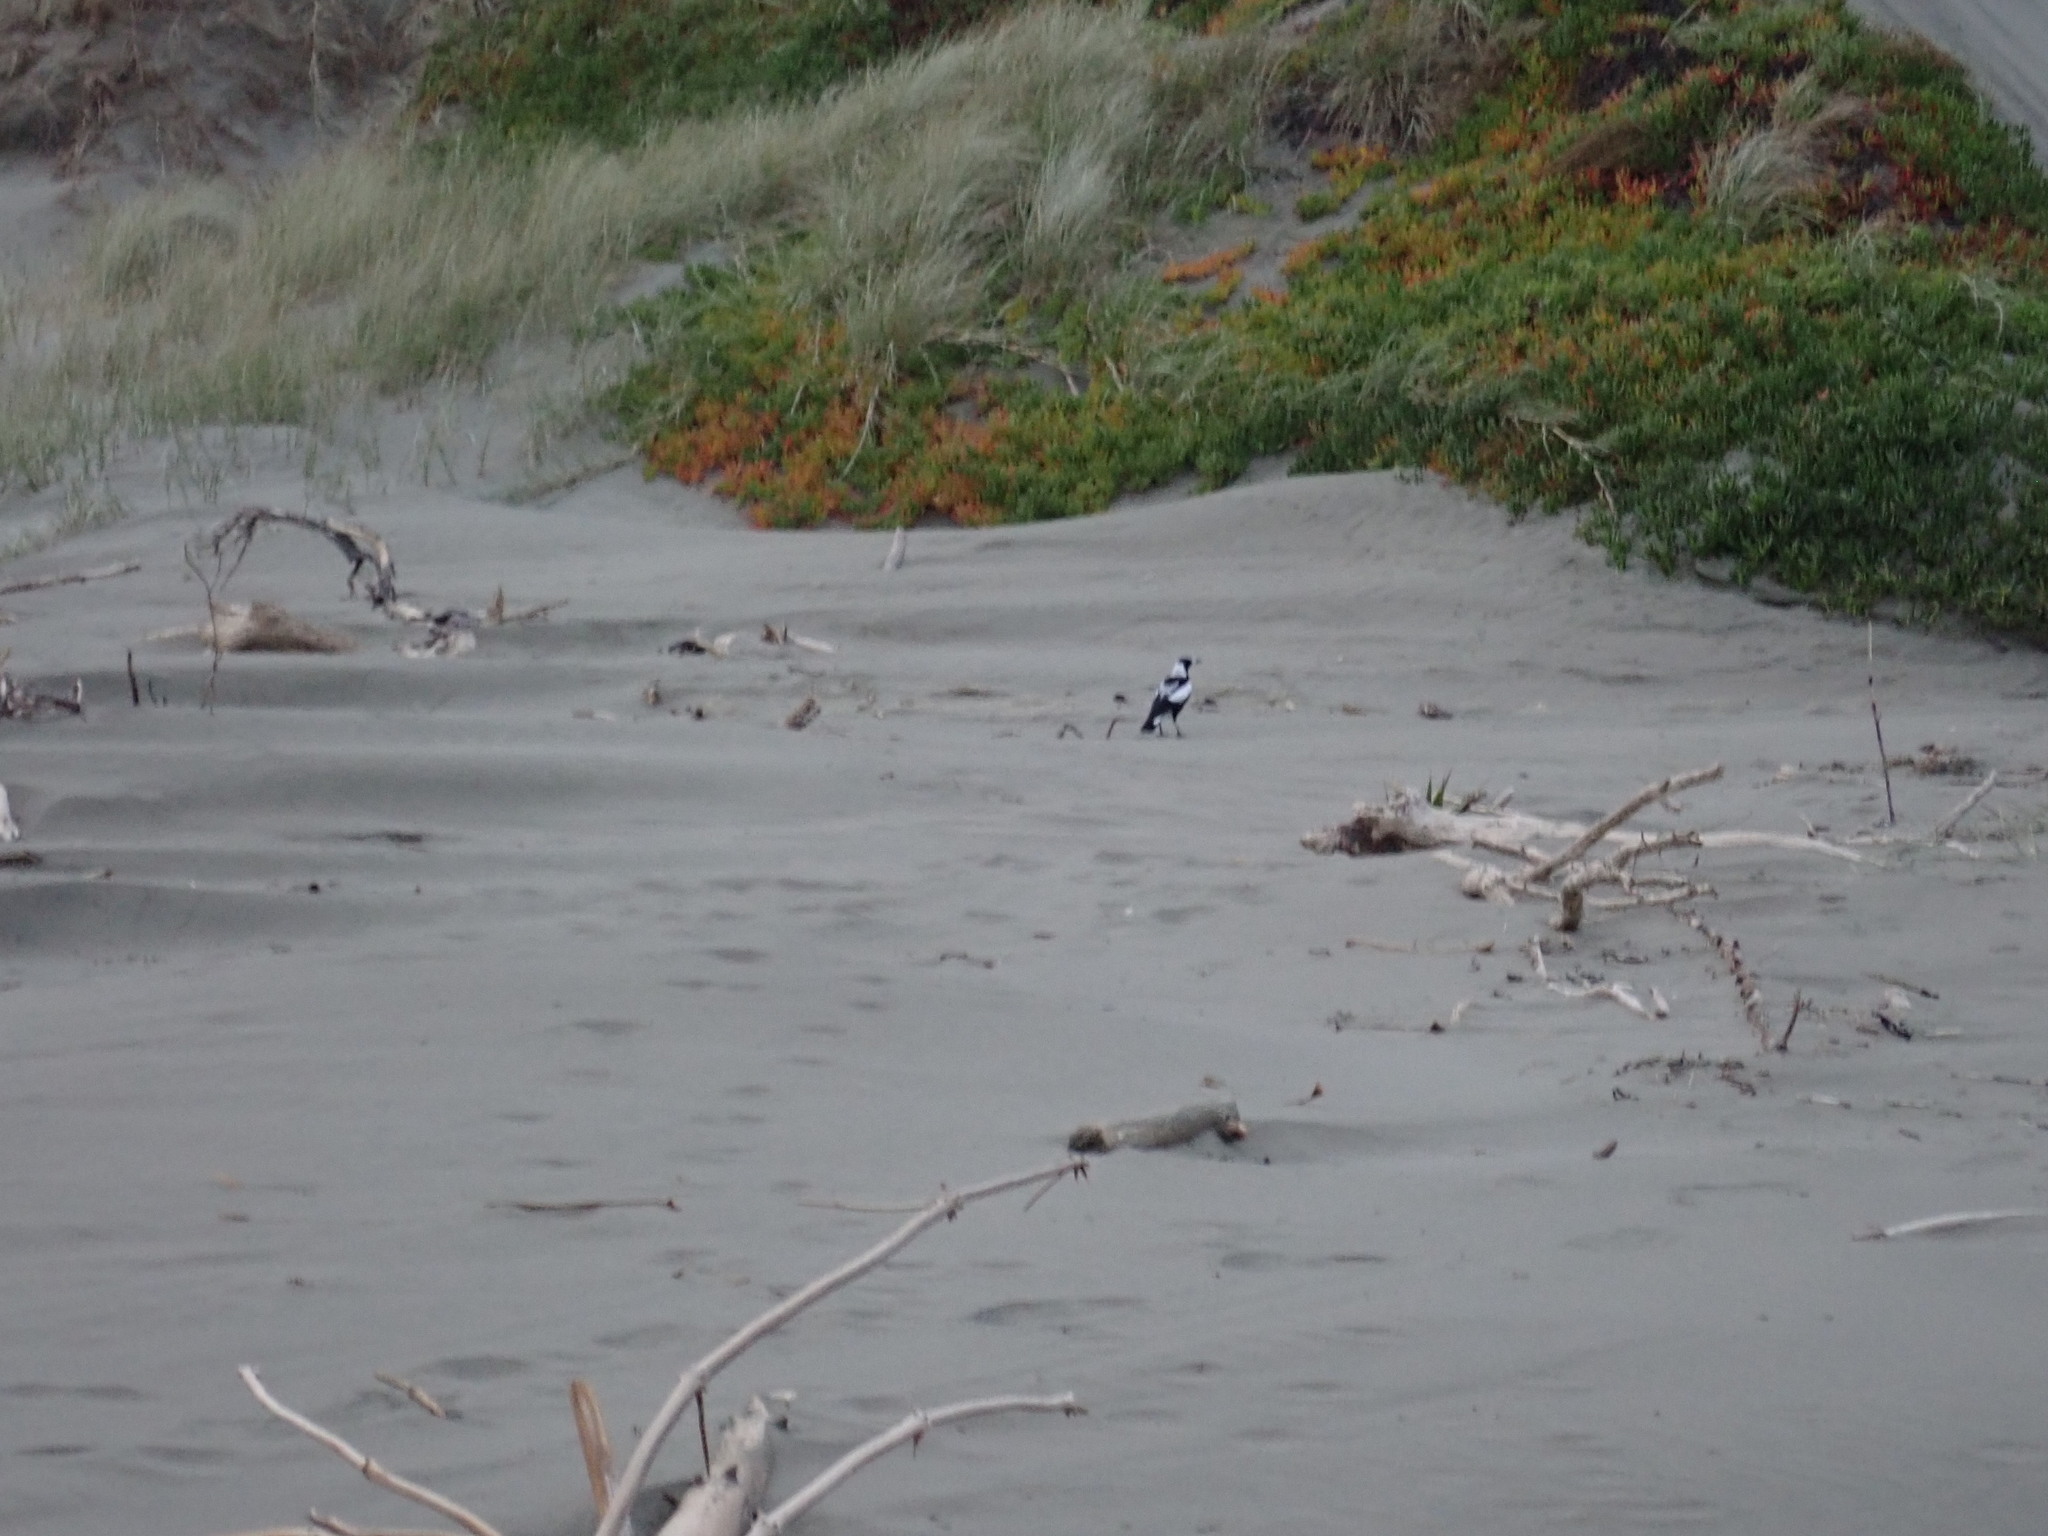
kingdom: Animalia
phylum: Chordata
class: Aves
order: Passeriformes
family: Cracticidae
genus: Gymnorhina
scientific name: Gymnorhina tibicen
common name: Australian magpie
